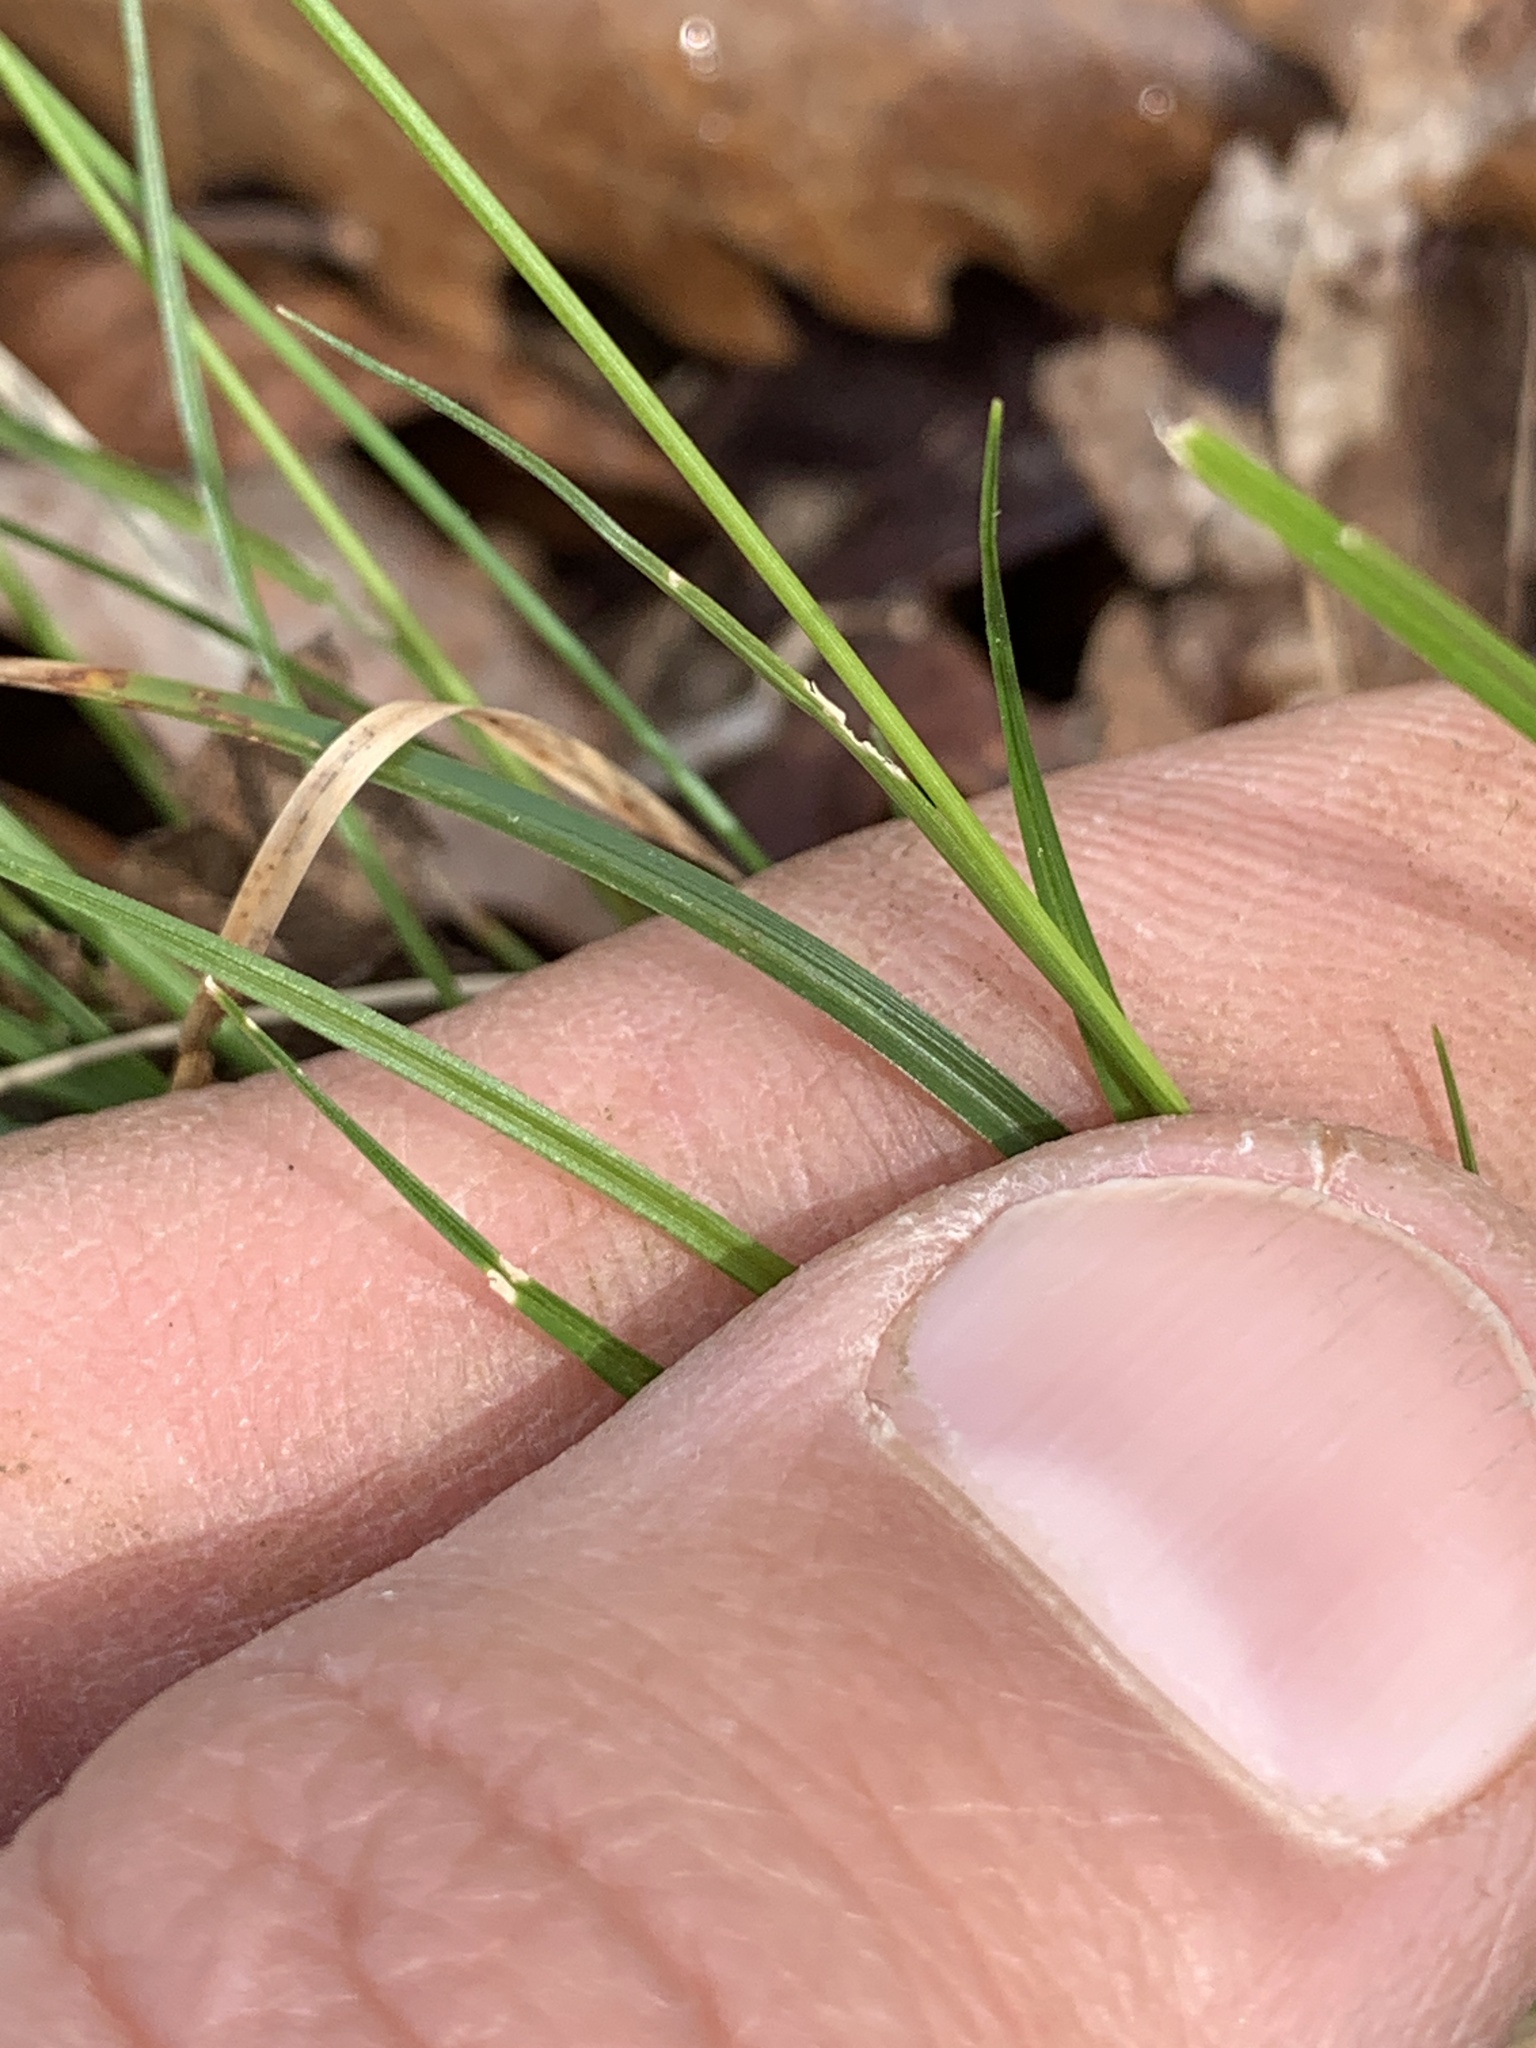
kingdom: Plantae
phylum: Tracheophyta
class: Liliopsida
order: Poales
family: Cyperaceae
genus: Carex
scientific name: Carex albicans
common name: Bellow-beaked sedge
